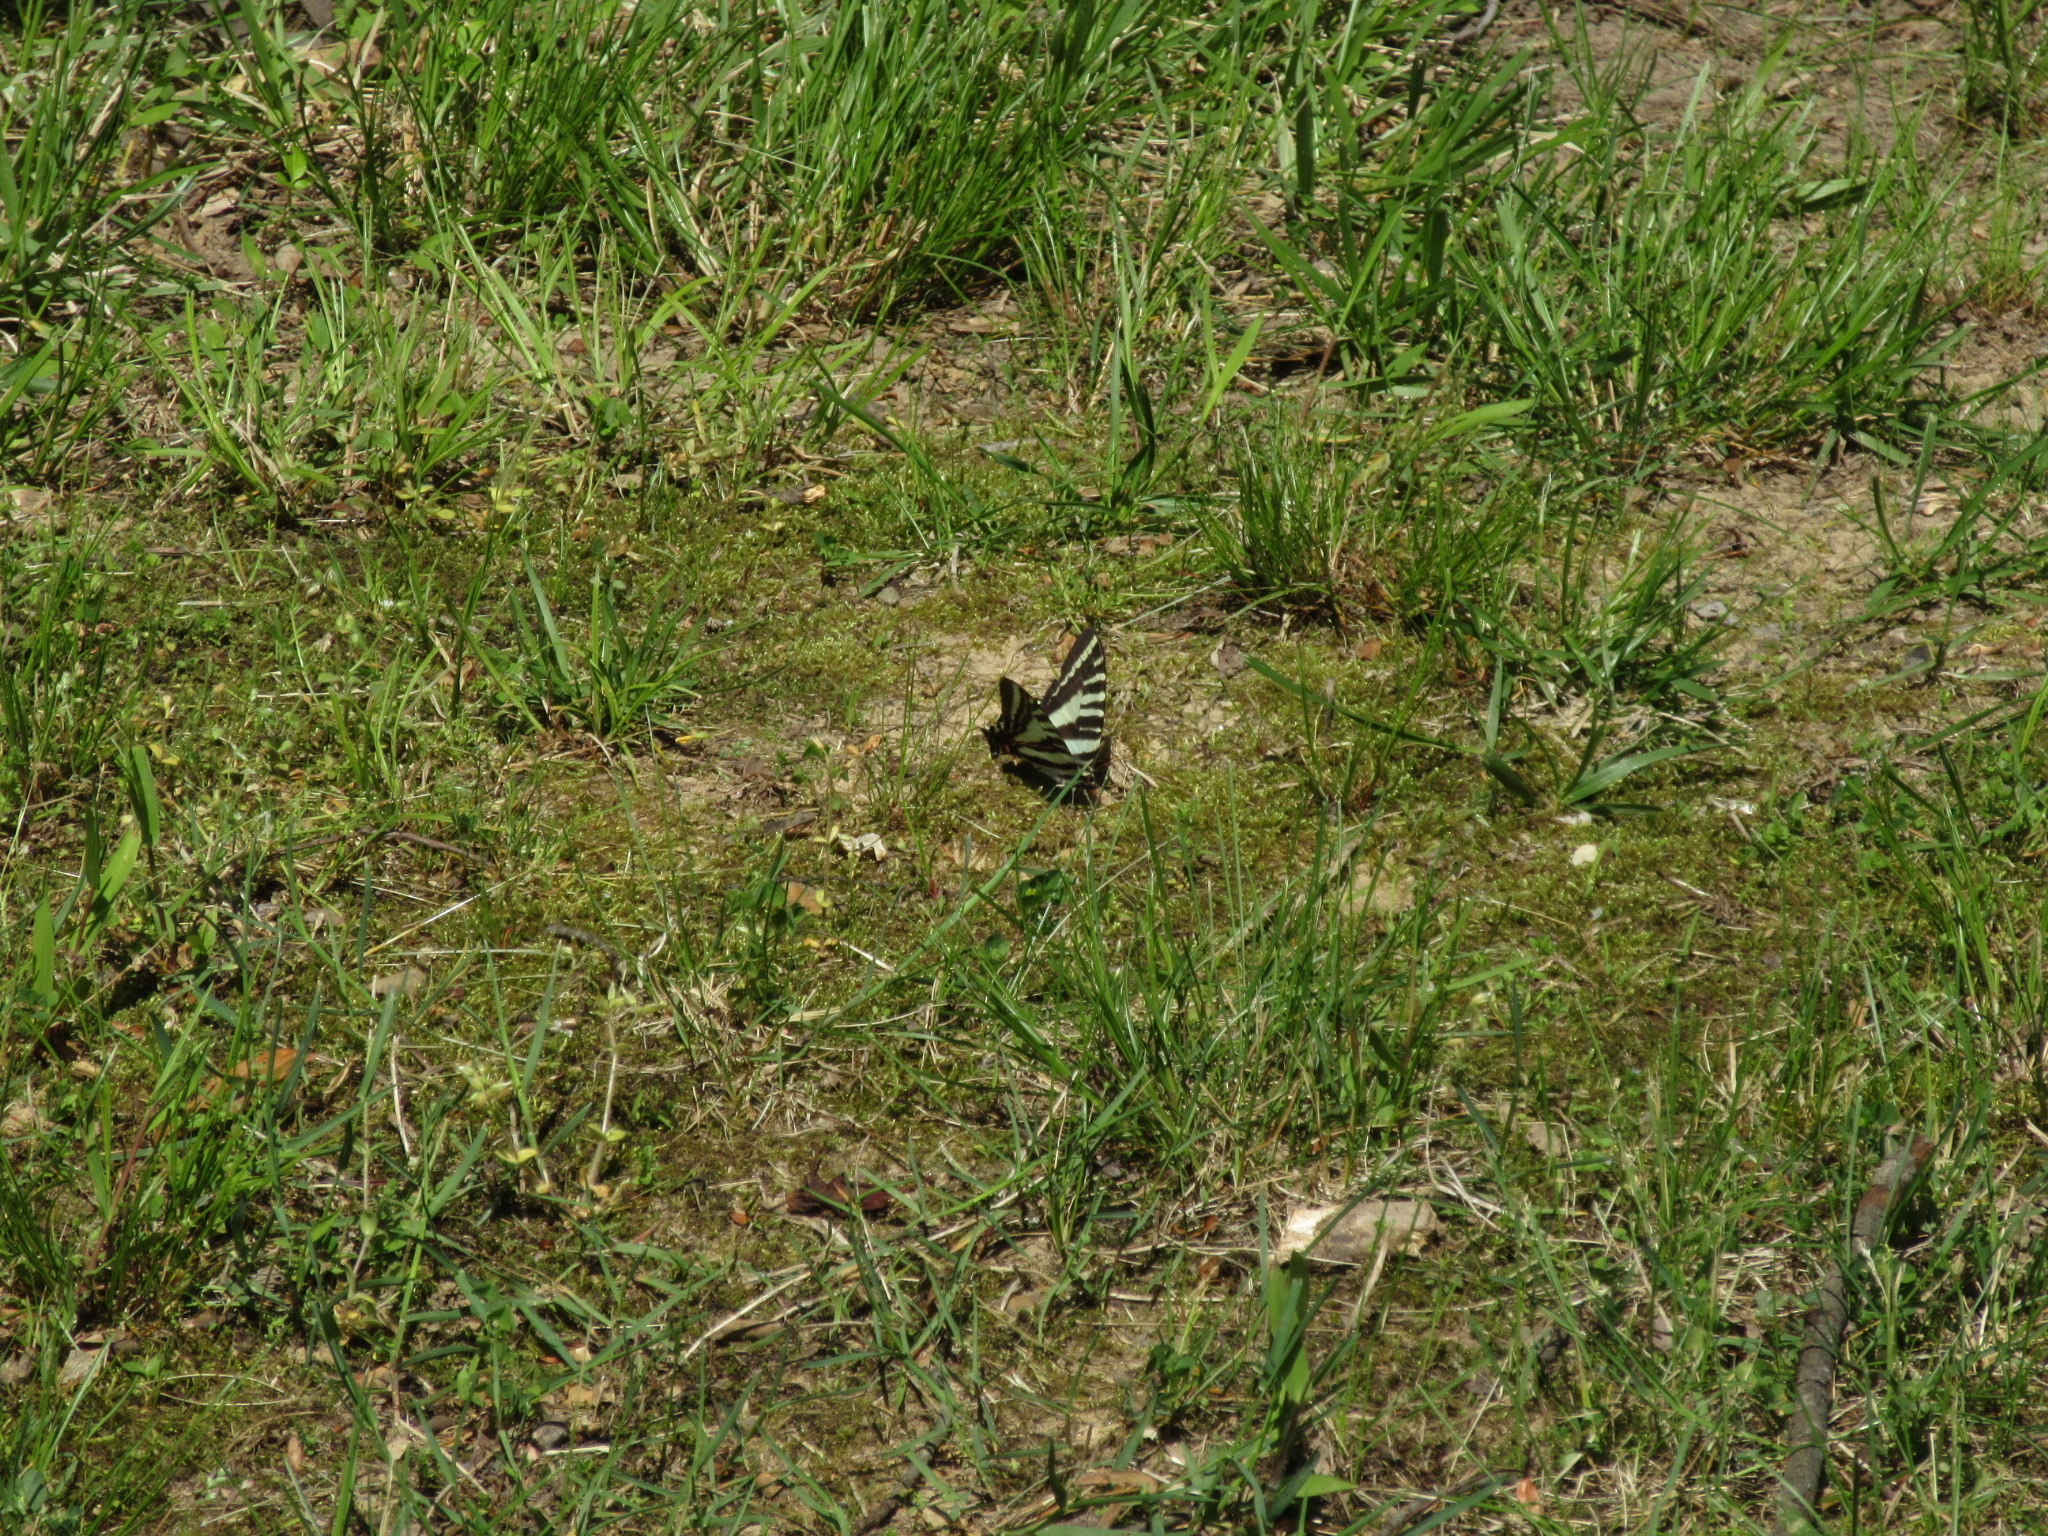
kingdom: Animalia
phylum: Arthropoda
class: Insecta
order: Lepidoptera
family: Papilionidae
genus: Protographium
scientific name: Protographium marcellus
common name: Zebra swallowtail
